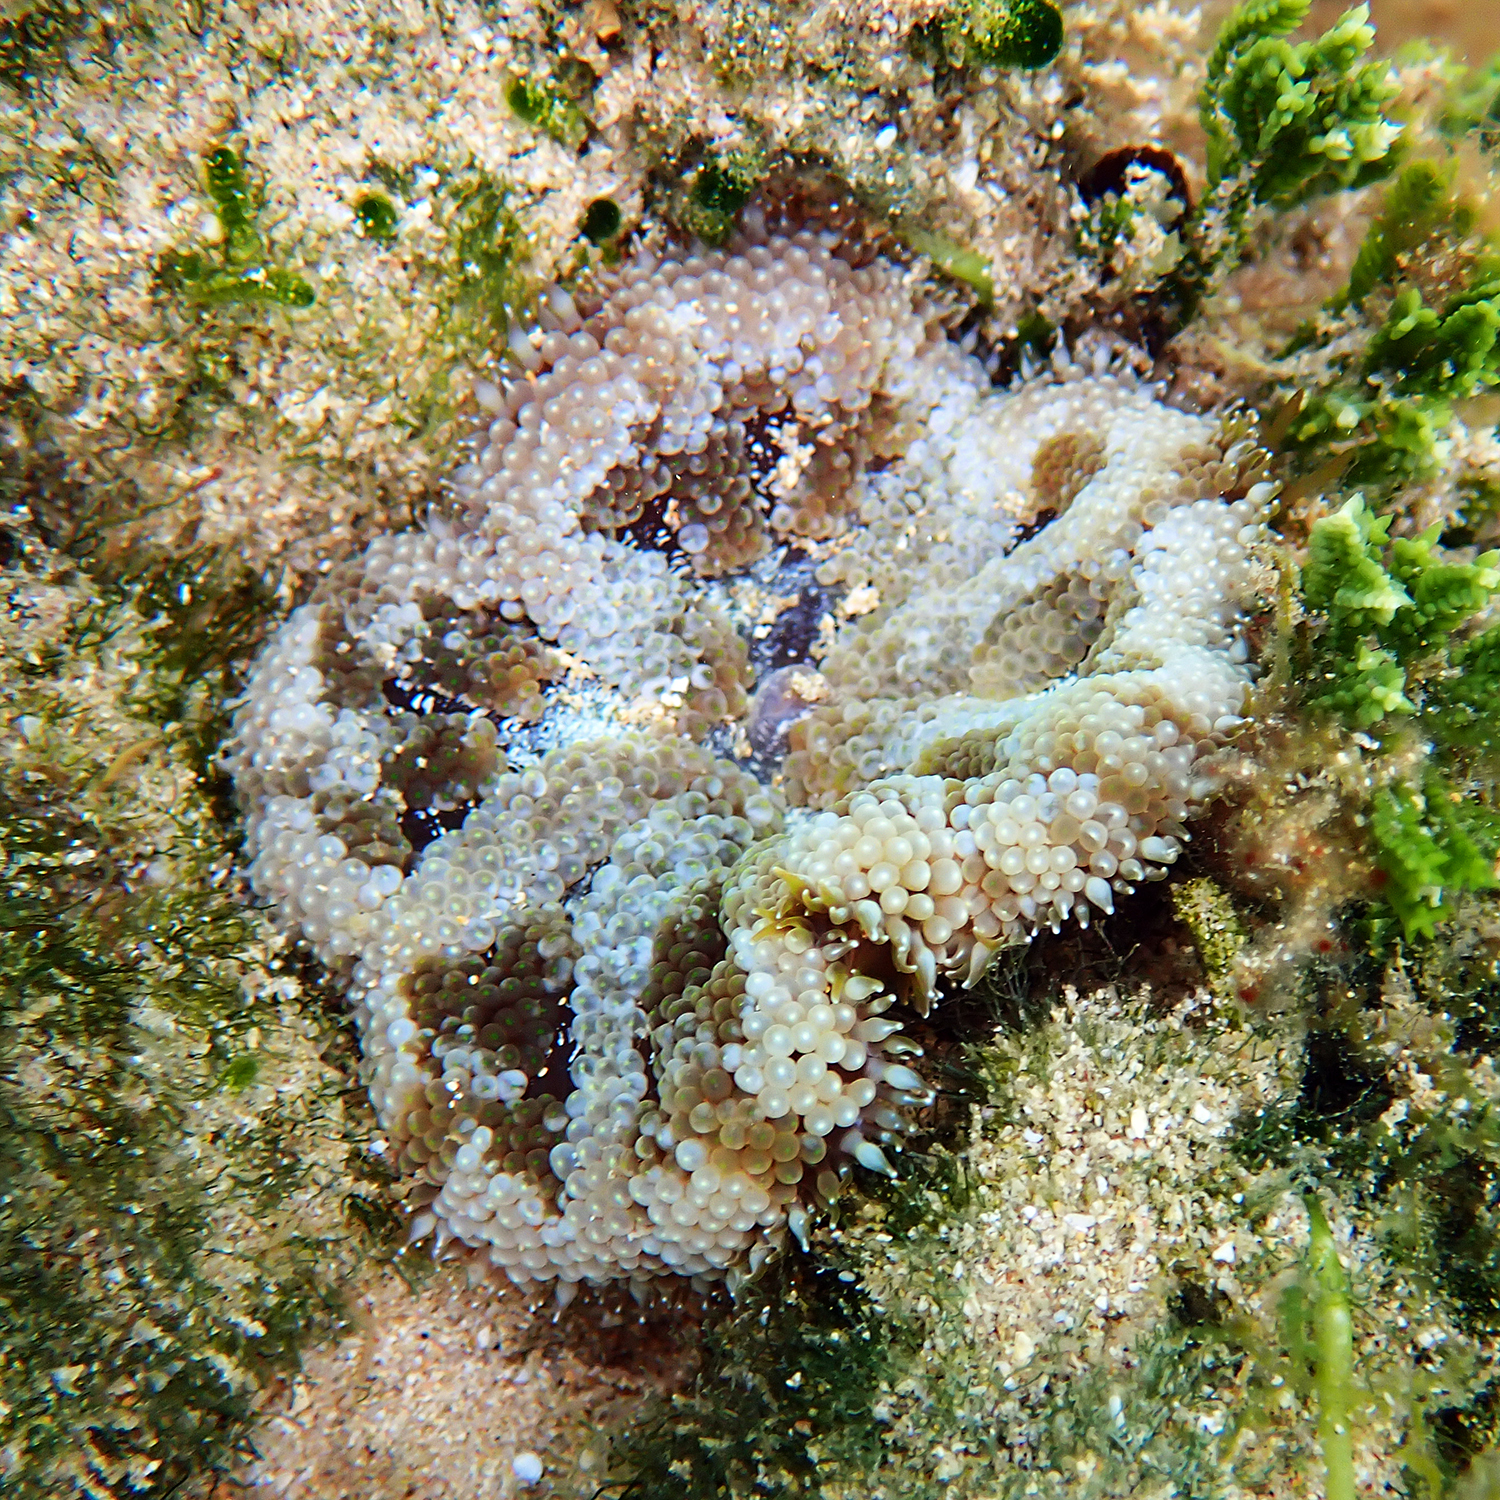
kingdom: Animalia
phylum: Cnidaria
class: Anthozoa
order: Actiniaria
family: Stichodactylidae
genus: Stichodactyla
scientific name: Stichodactyla tapetum
